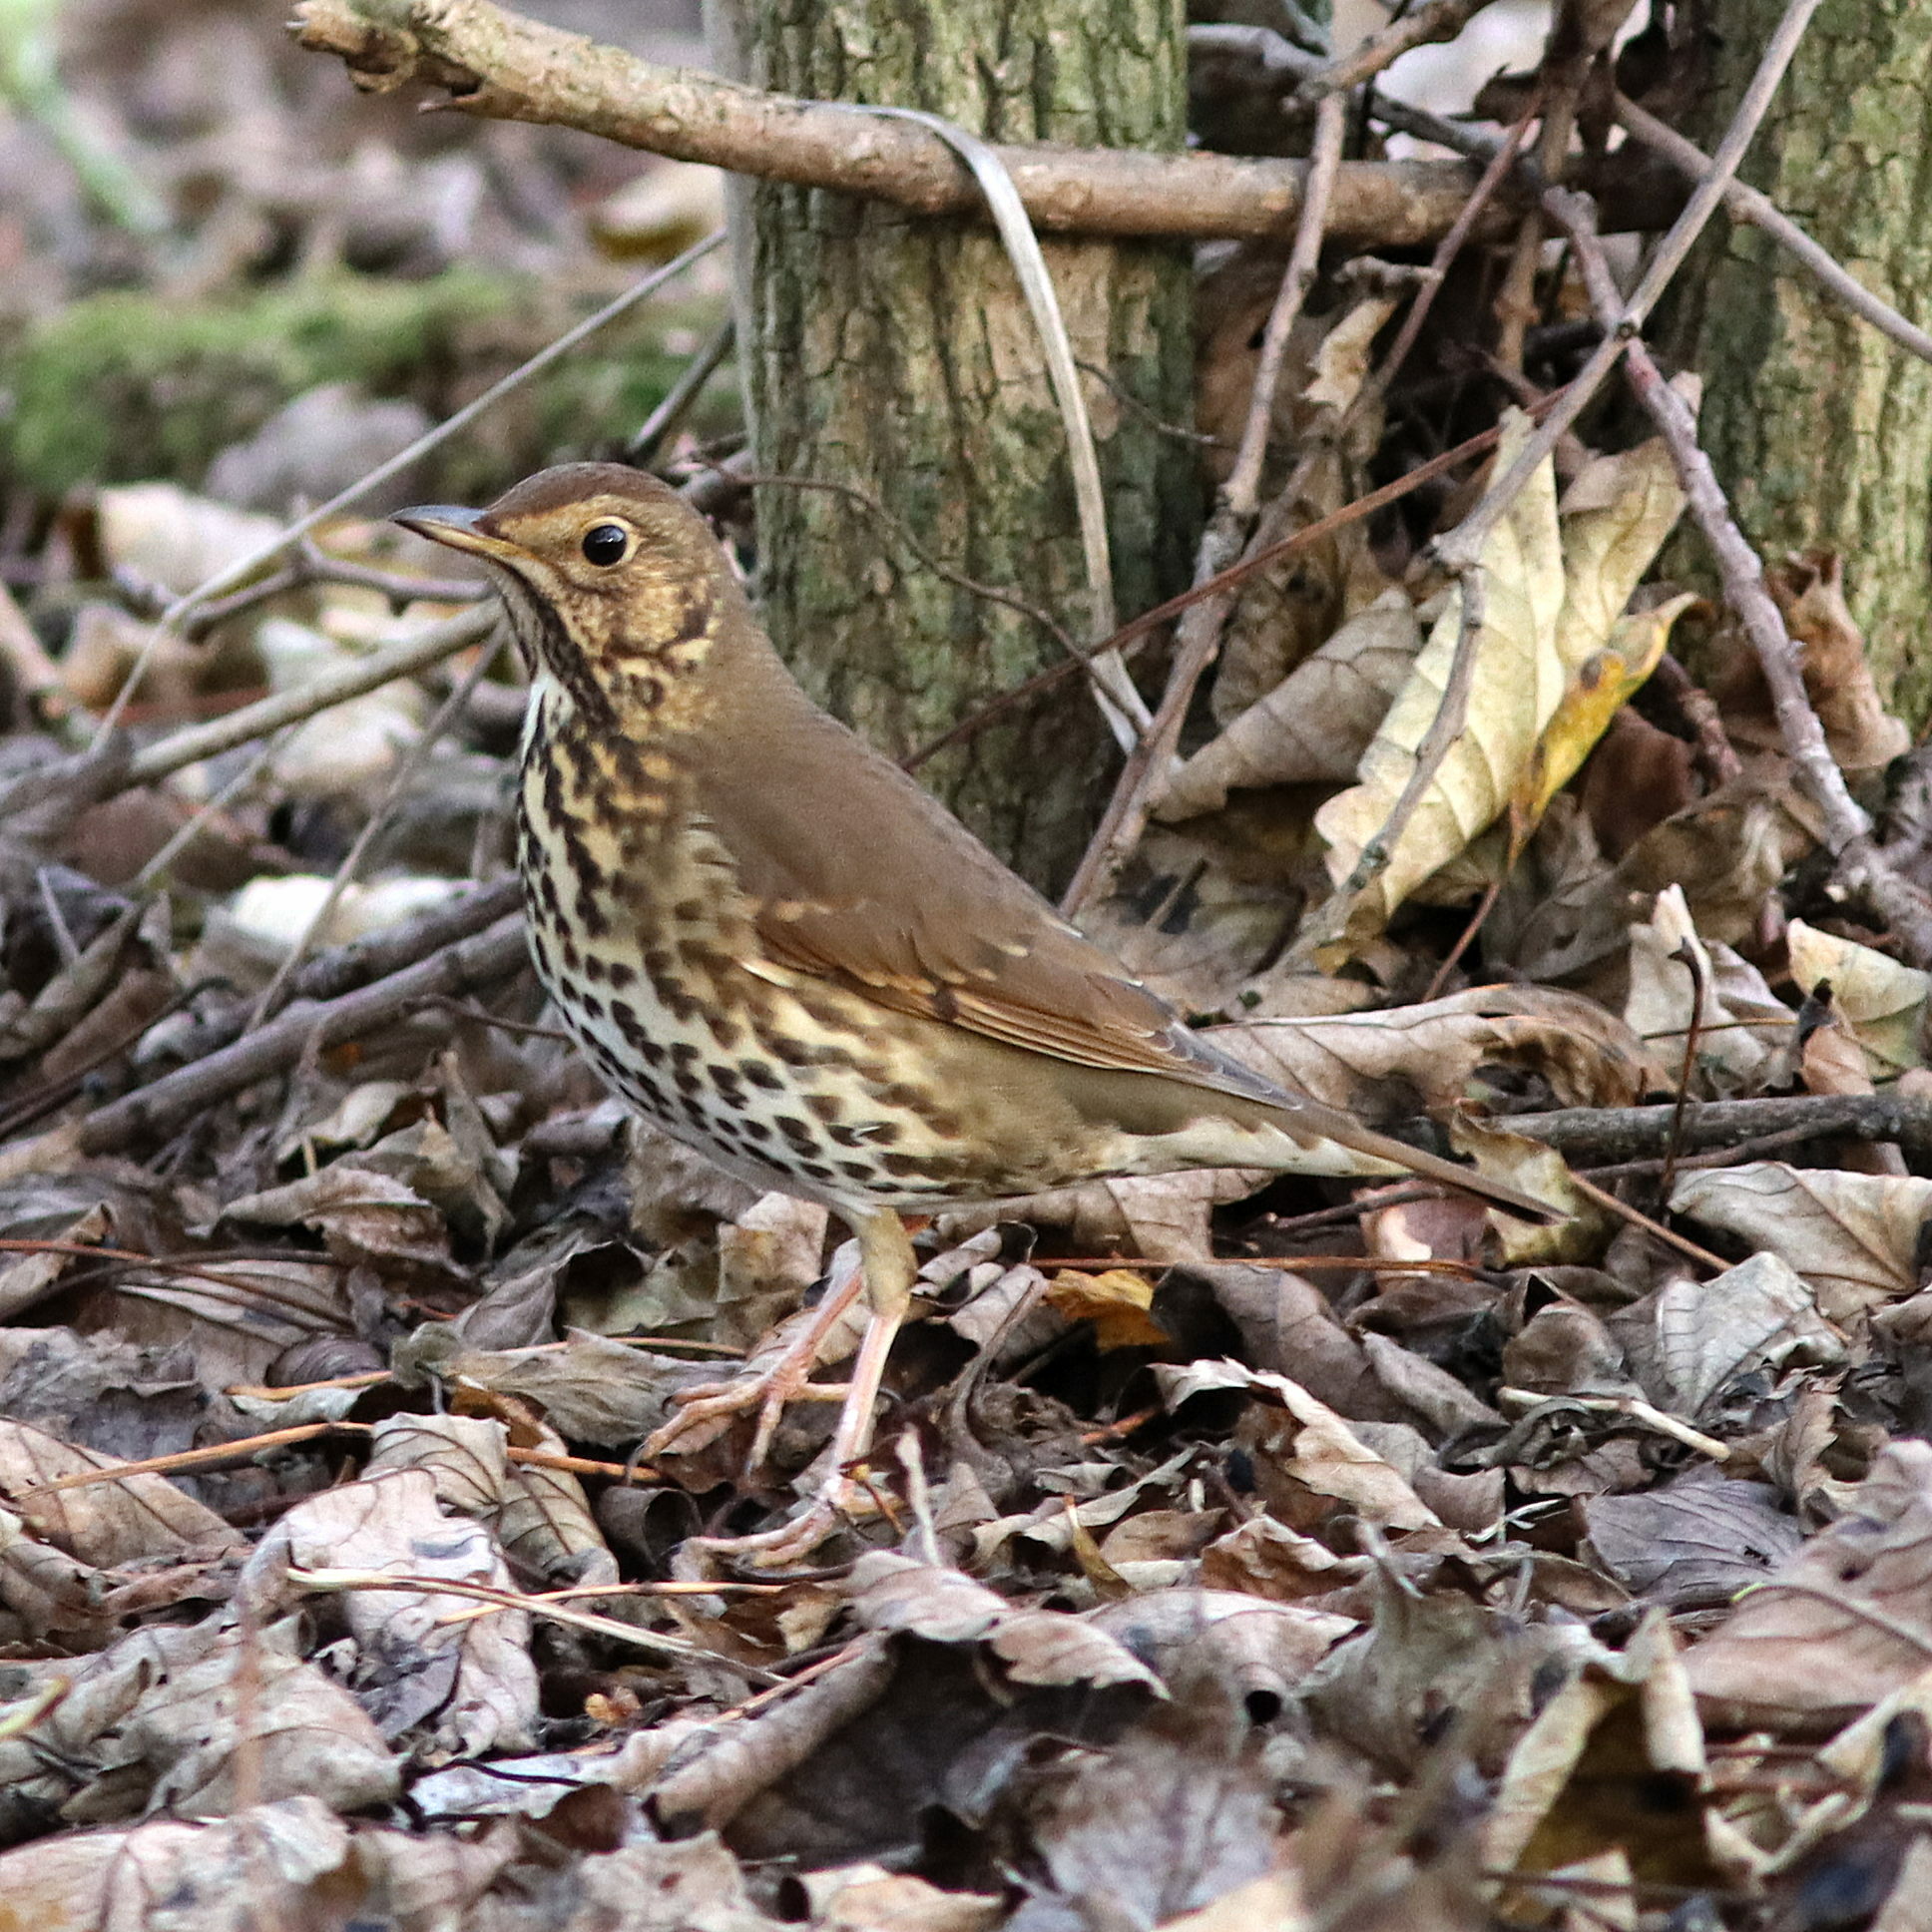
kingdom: Animalia
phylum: Chordata
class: Aves
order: Passeriformes
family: Turdidae
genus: Turdus
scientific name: Turdus philomelos
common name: Song thrush
